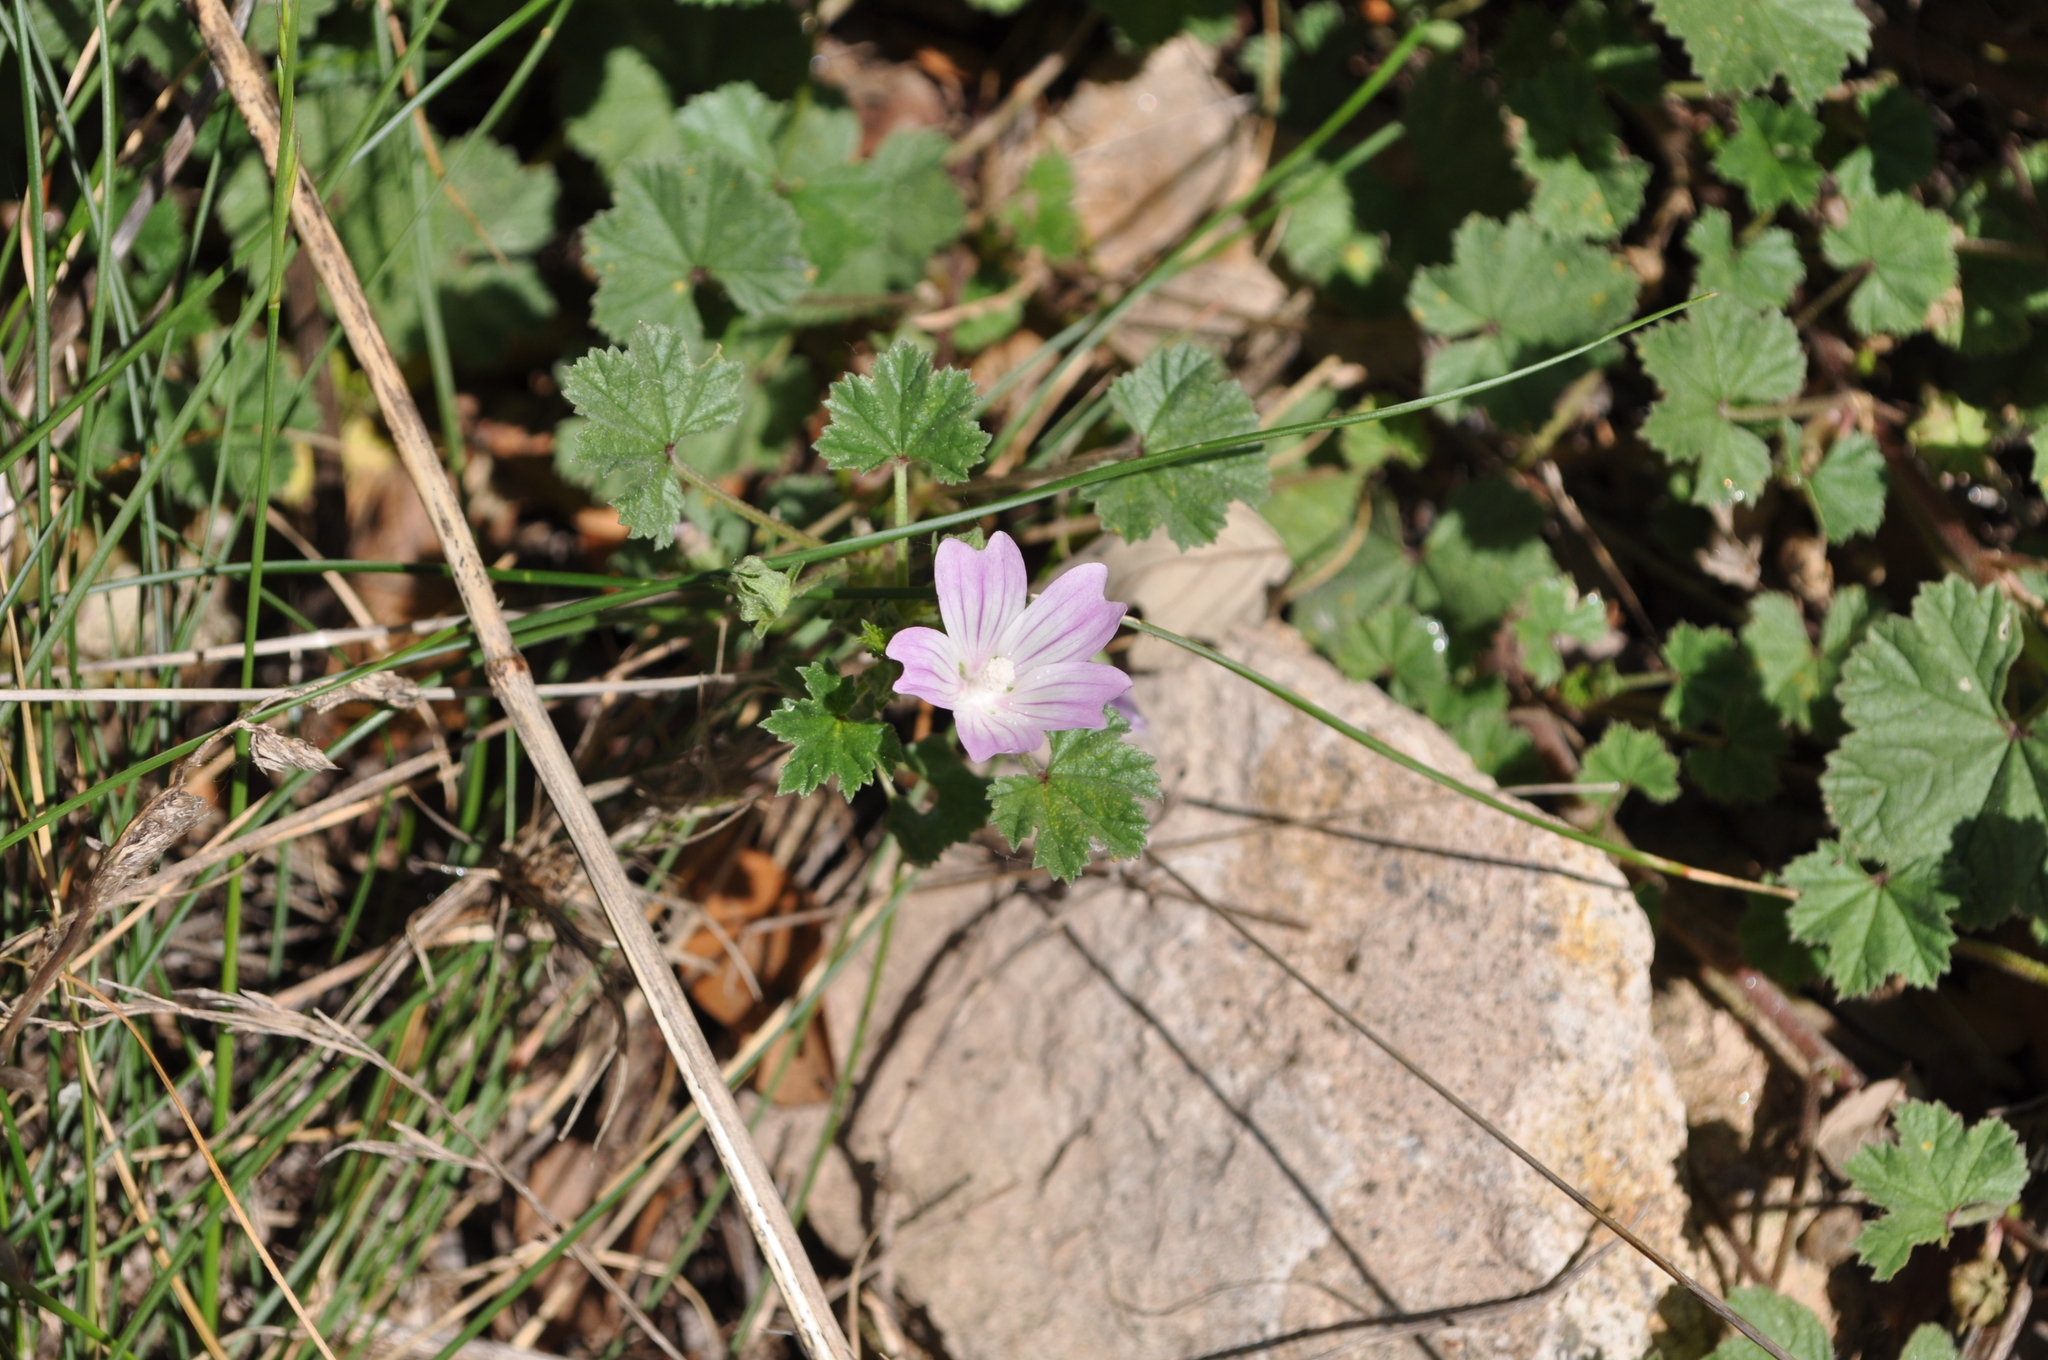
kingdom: Plantae
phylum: Tracheophyta
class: Magnoliopsida
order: Malvales
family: Malvaceae
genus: Malva
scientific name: Malva neglecta
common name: Common mallow
